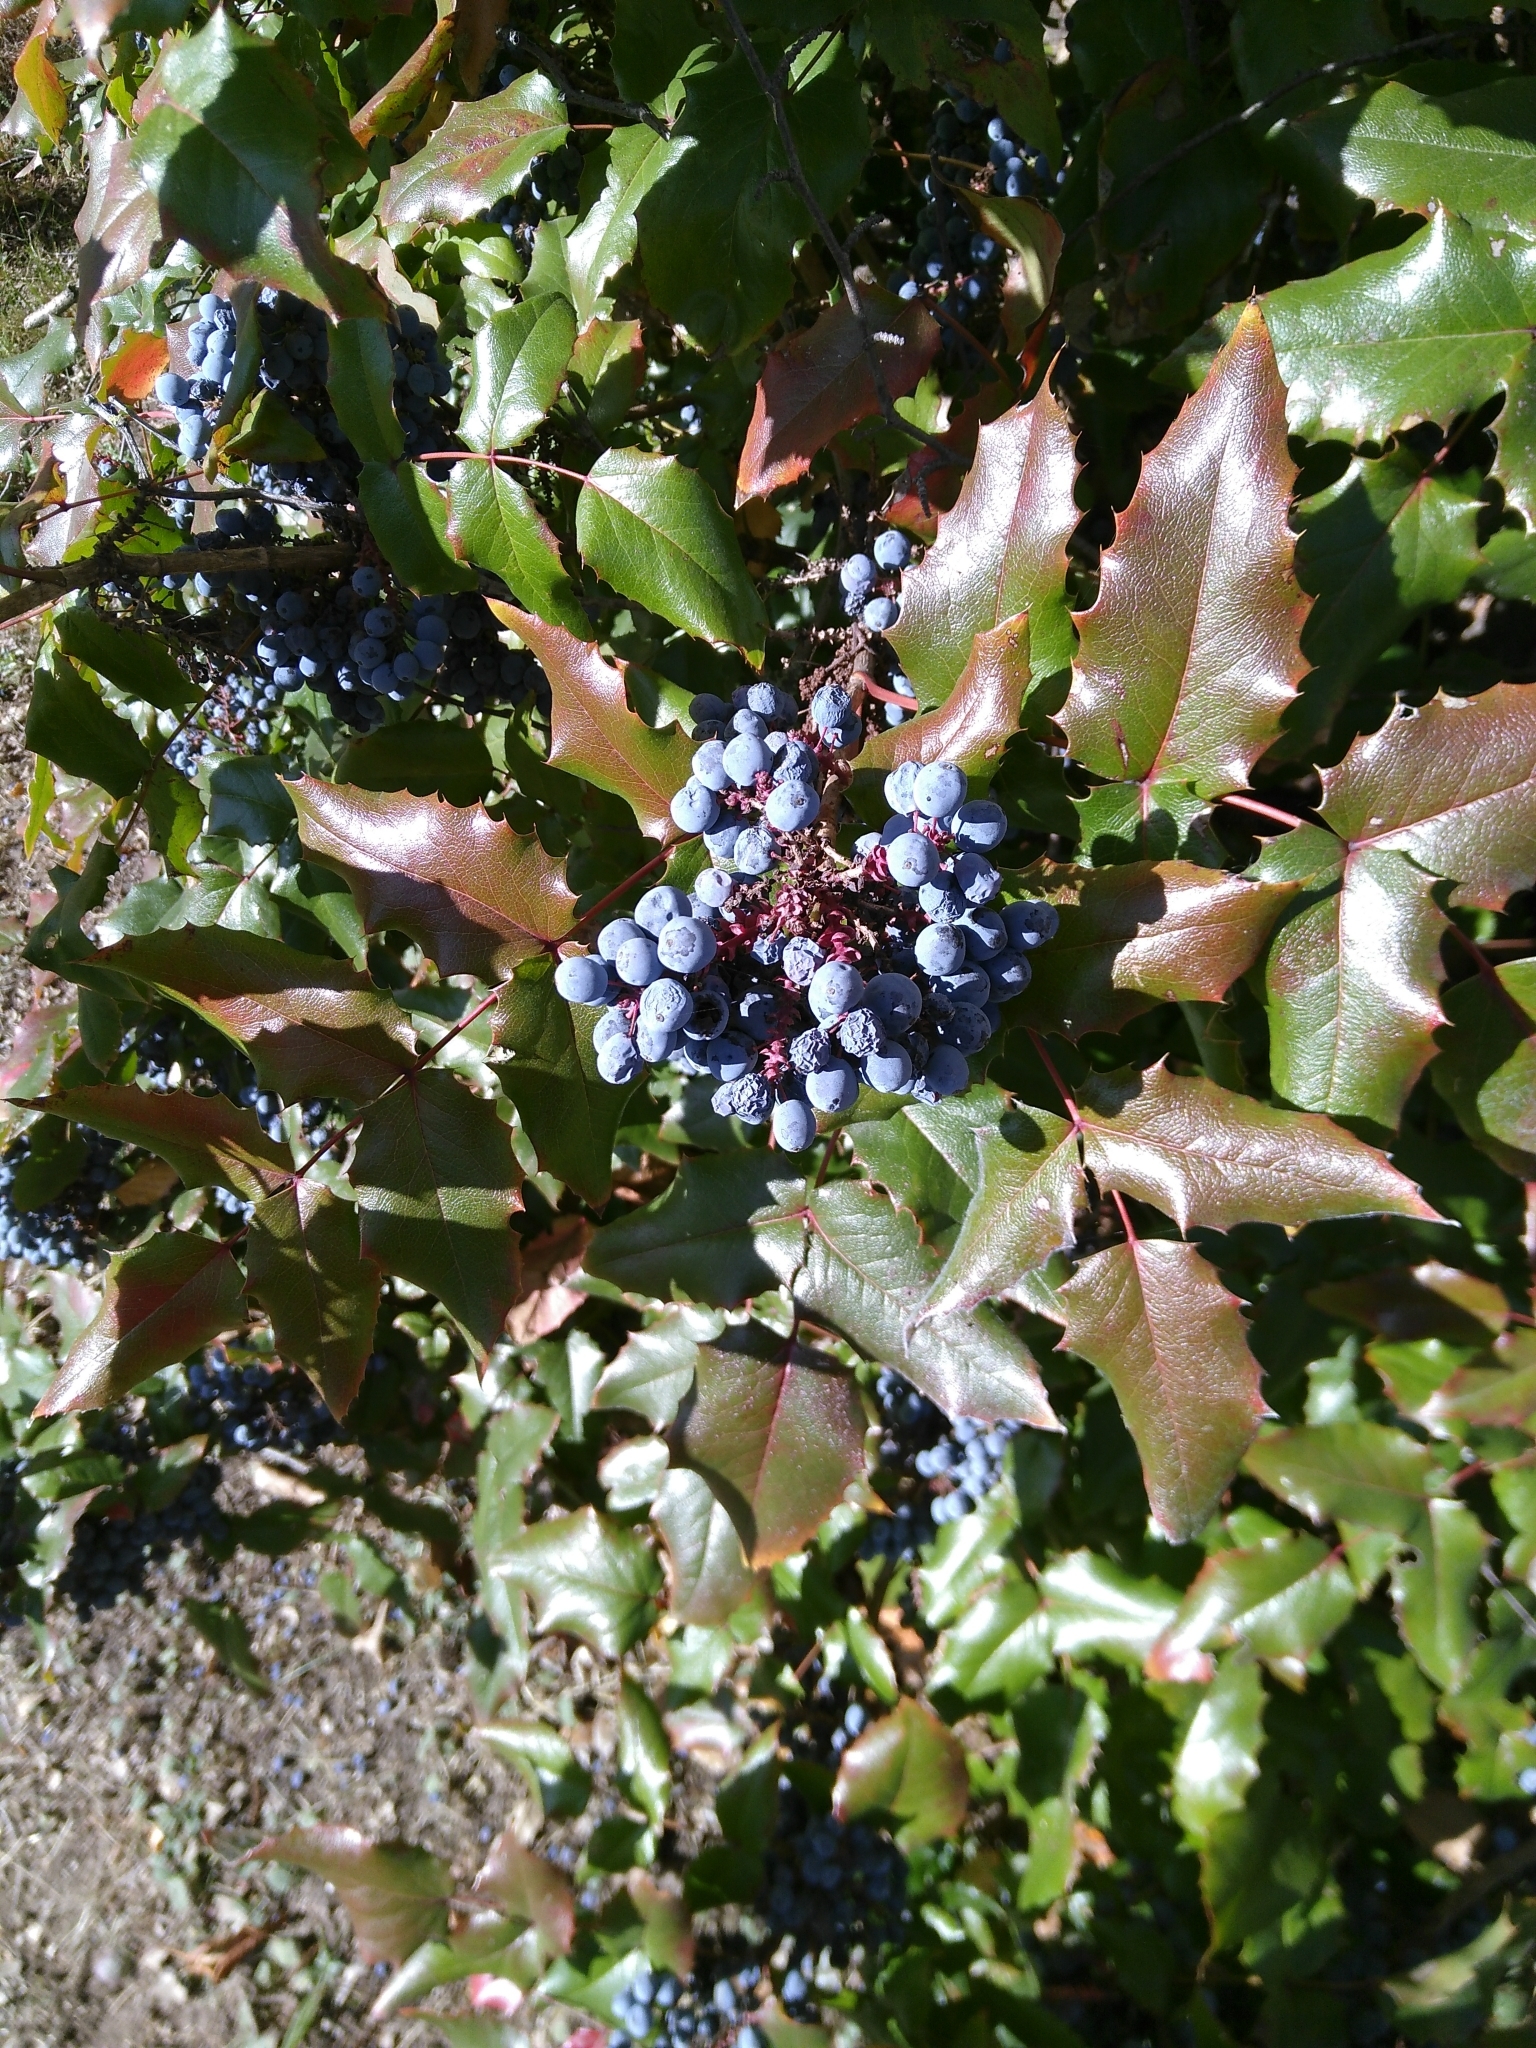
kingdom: Plantae
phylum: Tracheophyta
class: Magnoliopsida
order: Ranunculales
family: Berberidaceae
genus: Mahonia
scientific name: Mahonia aquifolium
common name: Oregon-grape
